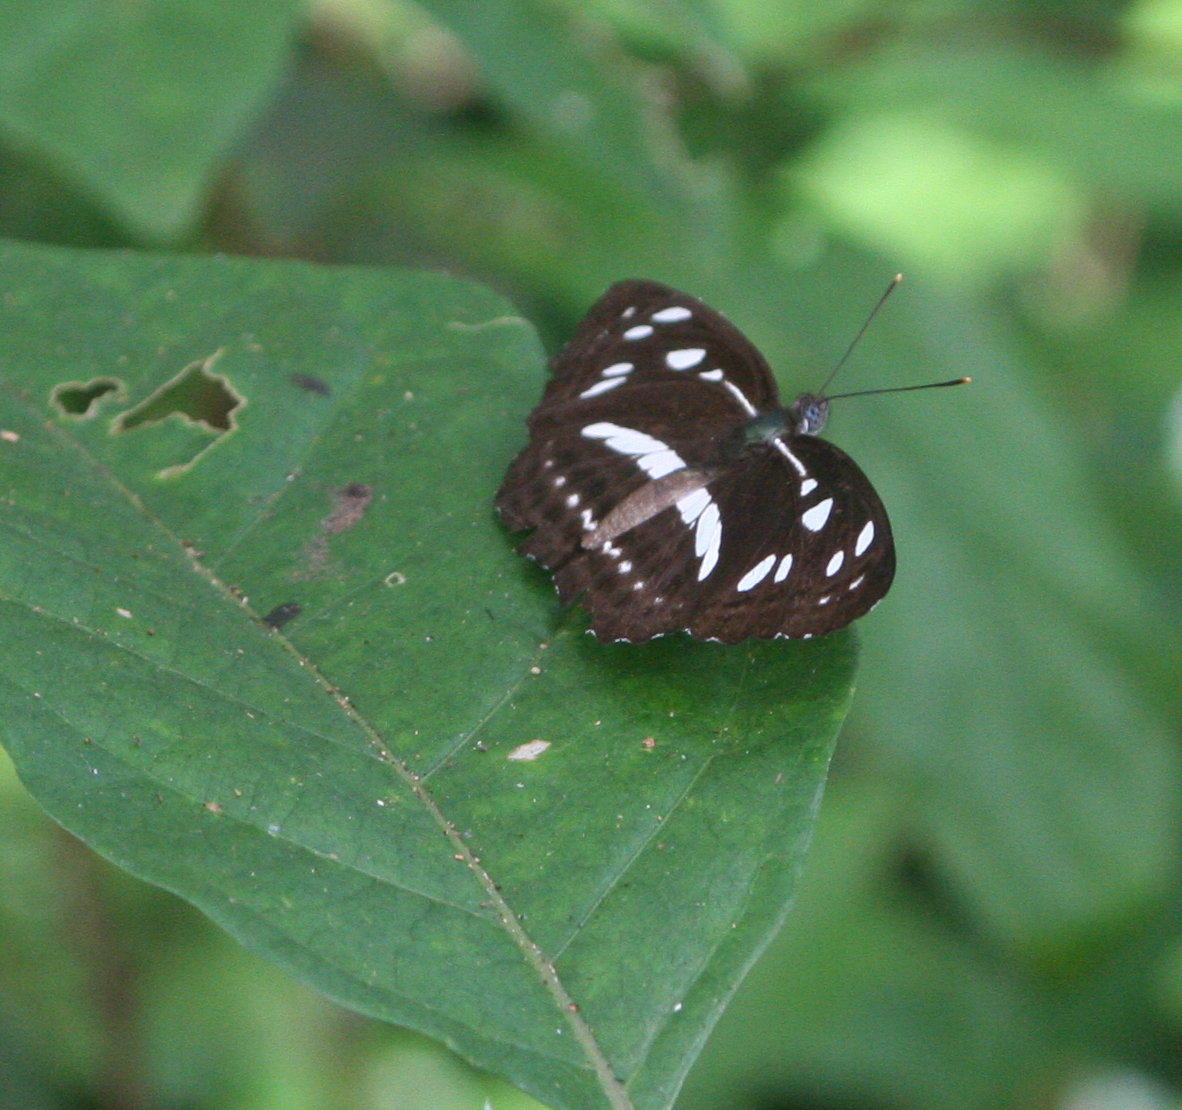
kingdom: Animalia
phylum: Arthropoda
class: Insecta
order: Lepidoptera
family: Nymphalidae
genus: Phaedyma
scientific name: Phaedyma columella
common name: Short banded sailer
